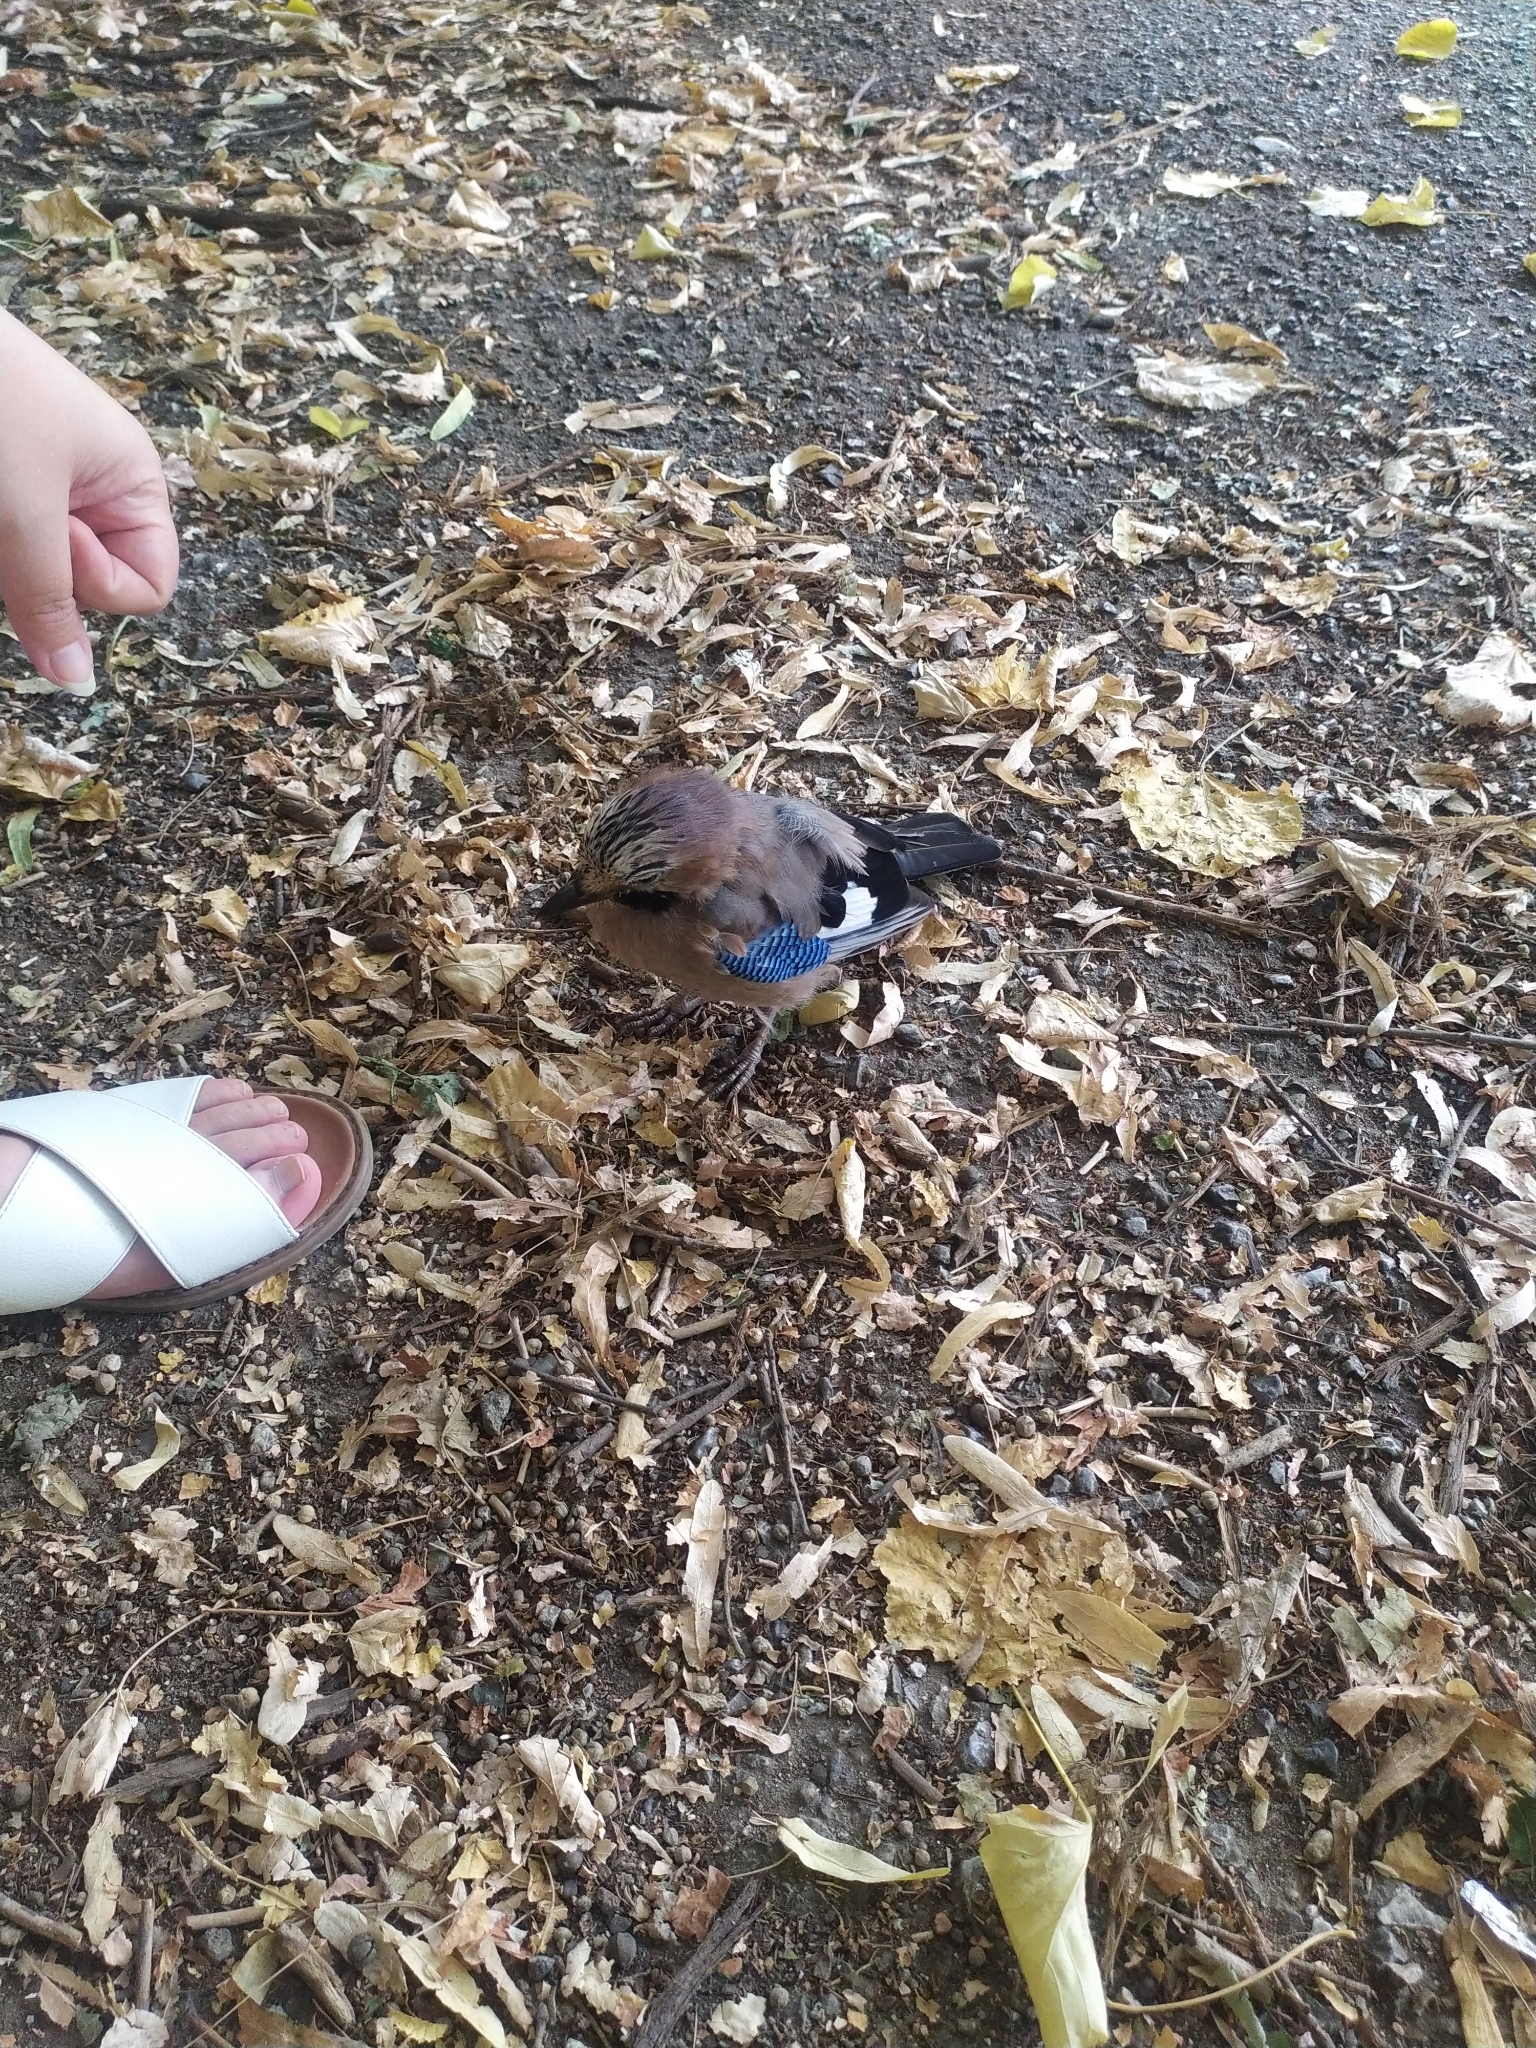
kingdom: Animalia
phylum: Chordata
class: Aves
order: Passeriformes
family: Corvidae
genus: Garrulus
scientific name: Garrulus glandarius
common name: Eurasian jay
